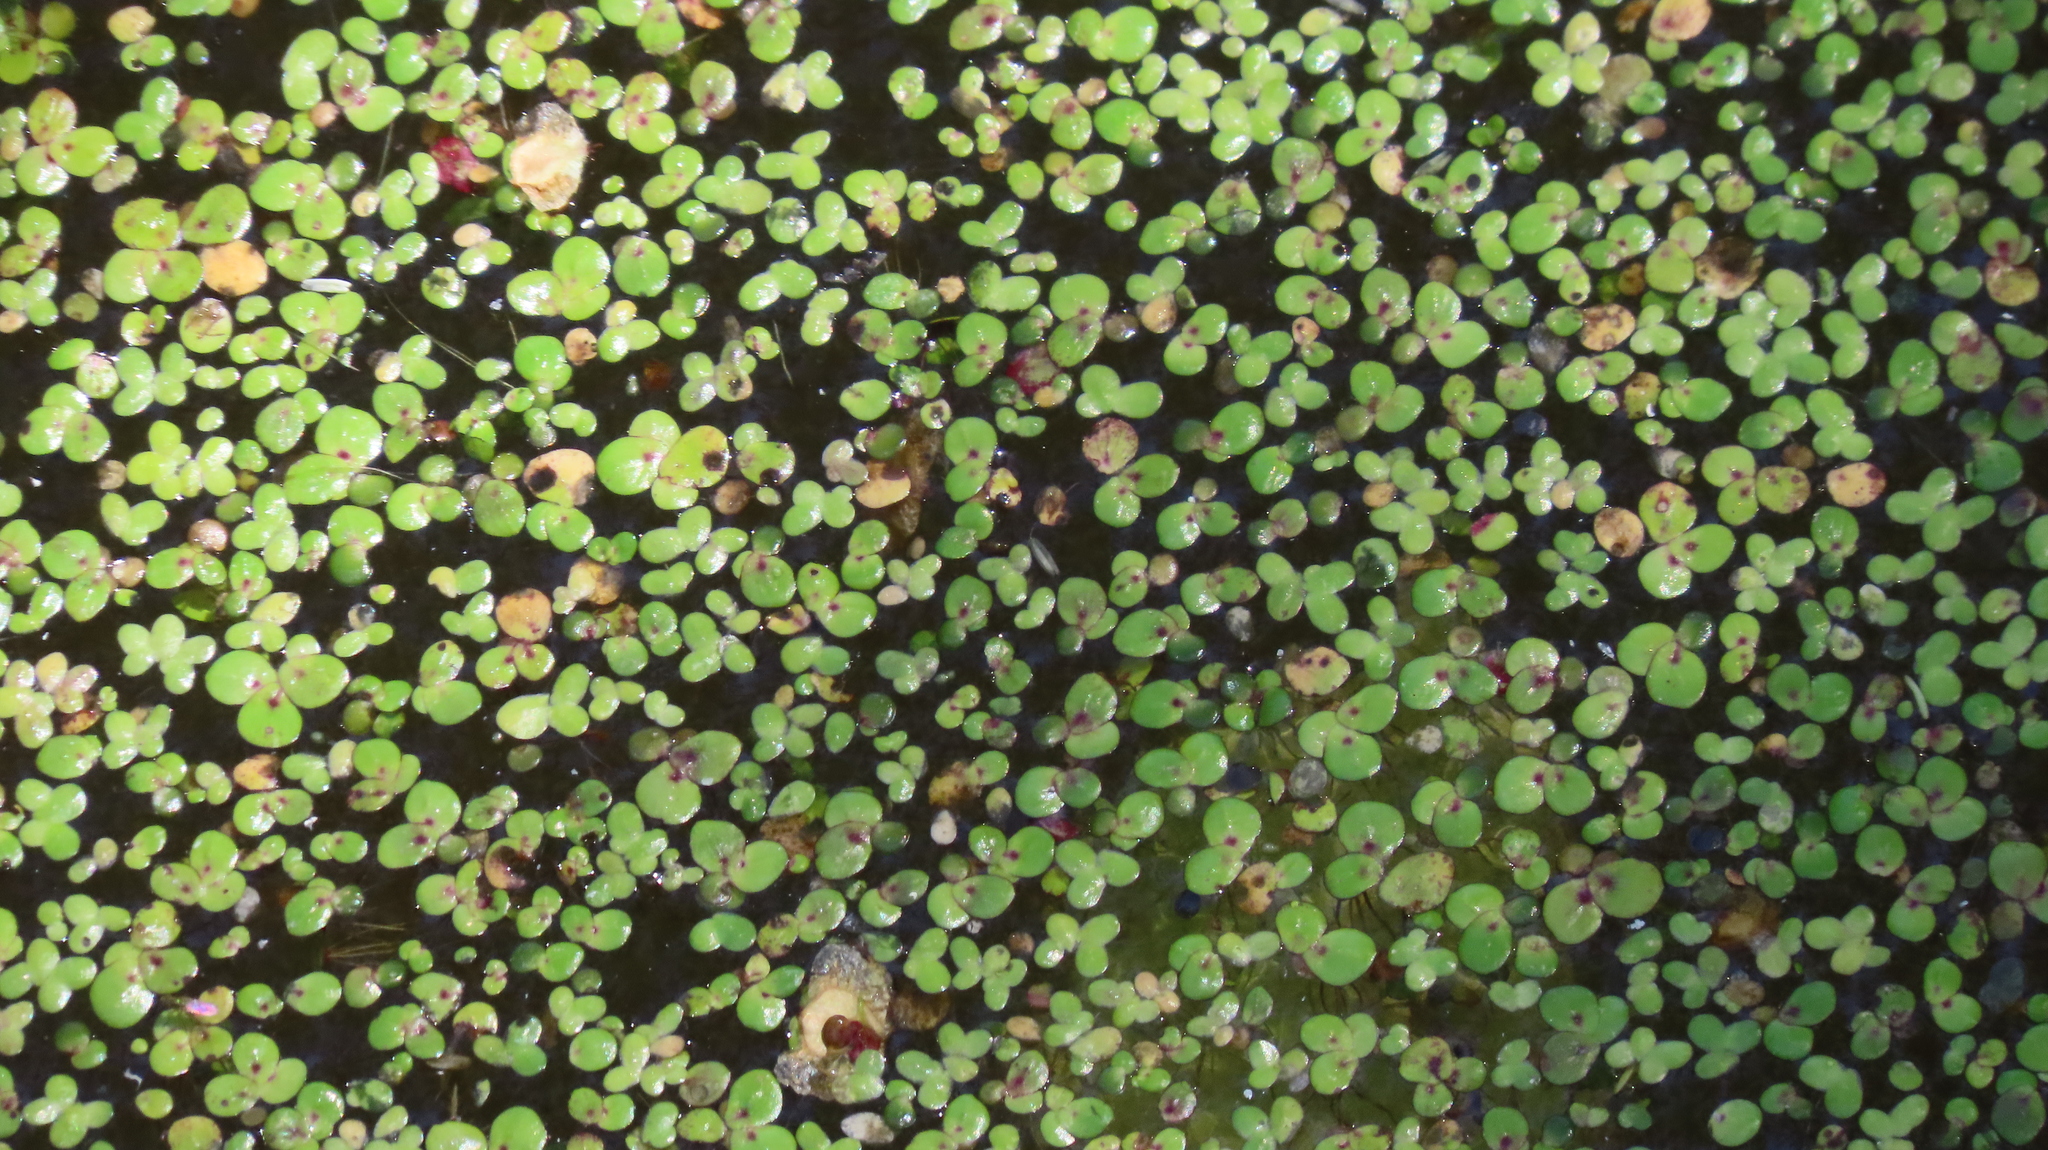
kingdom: Plantae
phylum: Tracheophyta
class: Liliopsida
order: Alismatales
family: Araceae
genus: Spirodela
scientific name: Spirodela polyrhiza
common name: Great duckweed
